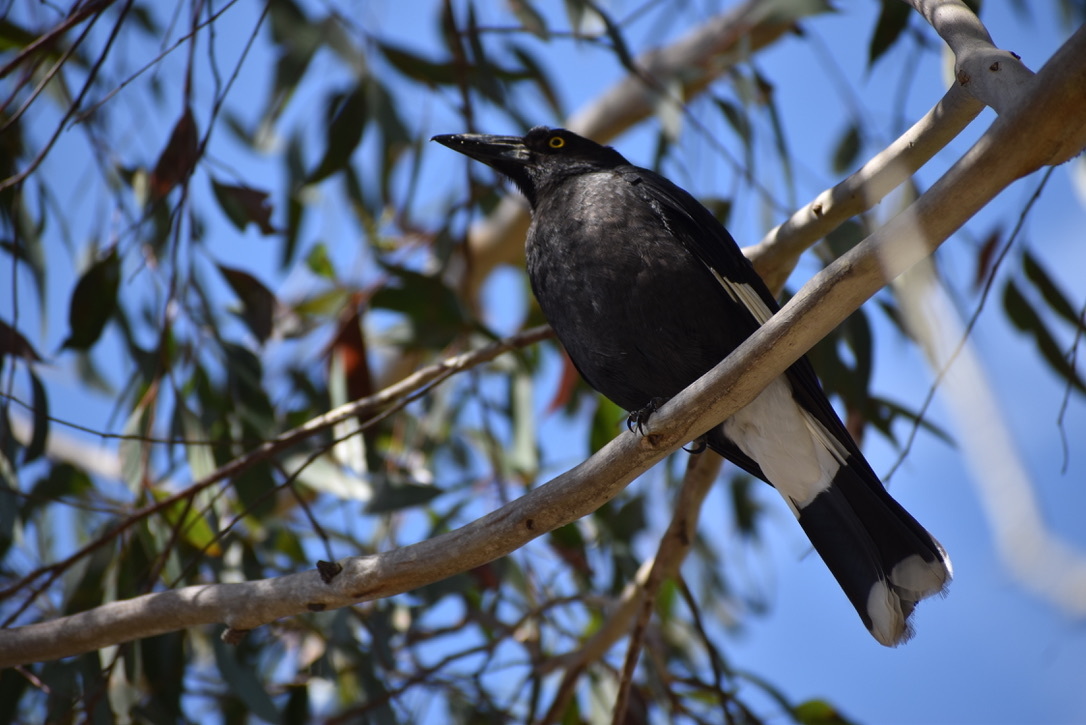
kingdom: Animalia
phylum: Chordata
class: Aves
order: Passeriformes
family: Cracticidae
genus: Strepera
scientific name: Strepera graculina
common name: Pied currawong
